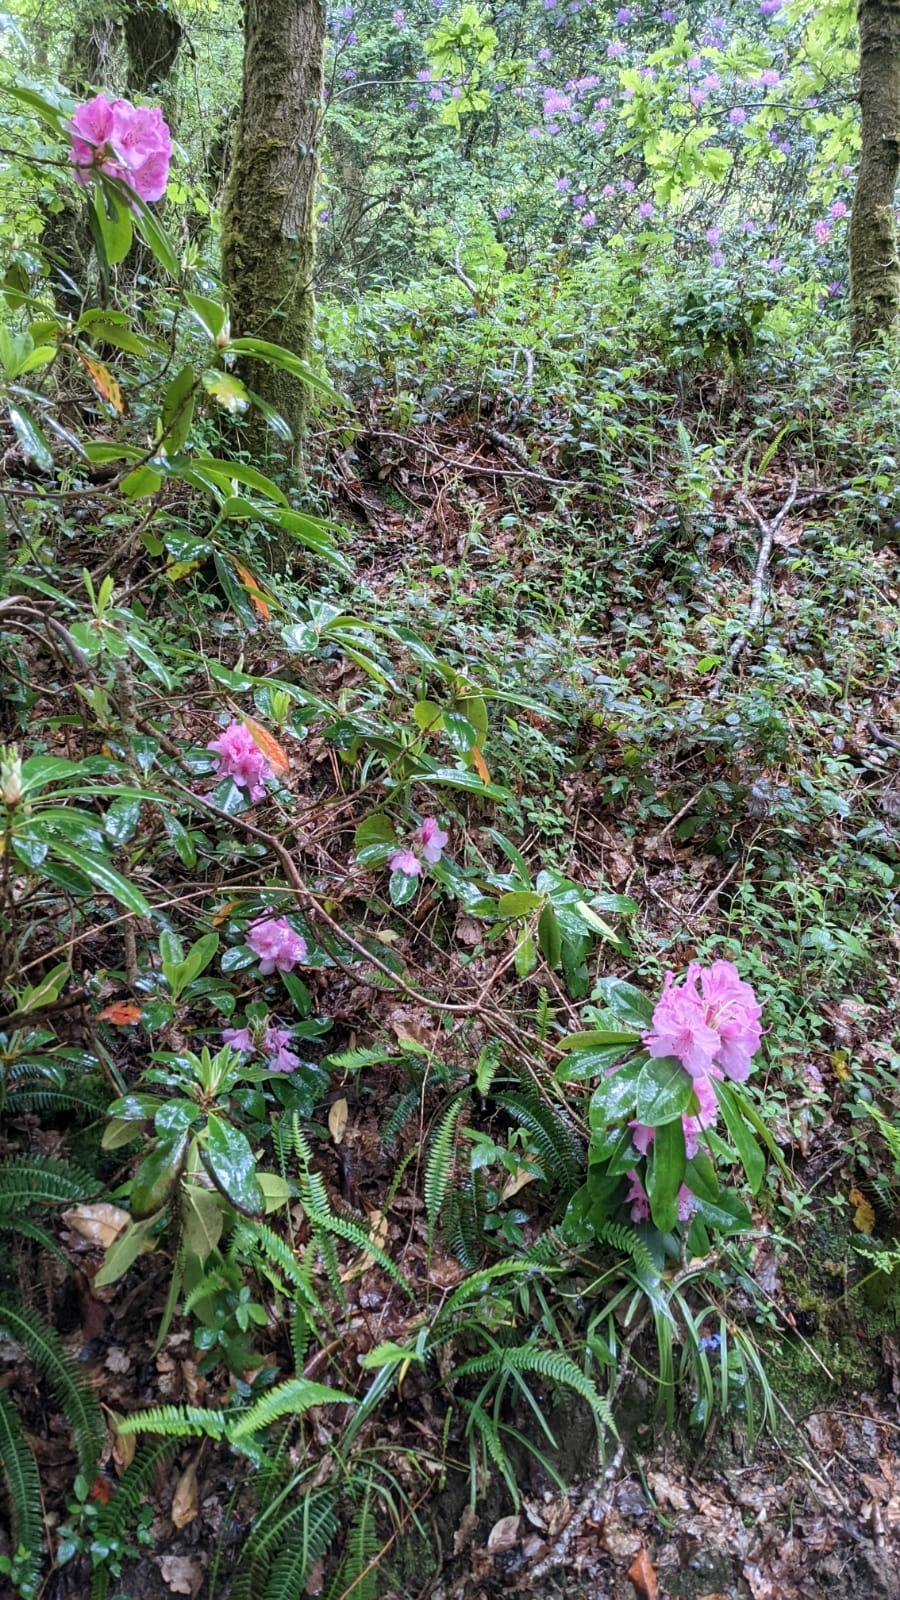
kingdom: Plantae
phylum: Tracheophyta
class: Magnoliopsida
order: Ericales
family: Ericaceae
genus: Rhododendron
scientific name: Rhododendron ponticum
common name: Rhododendron
